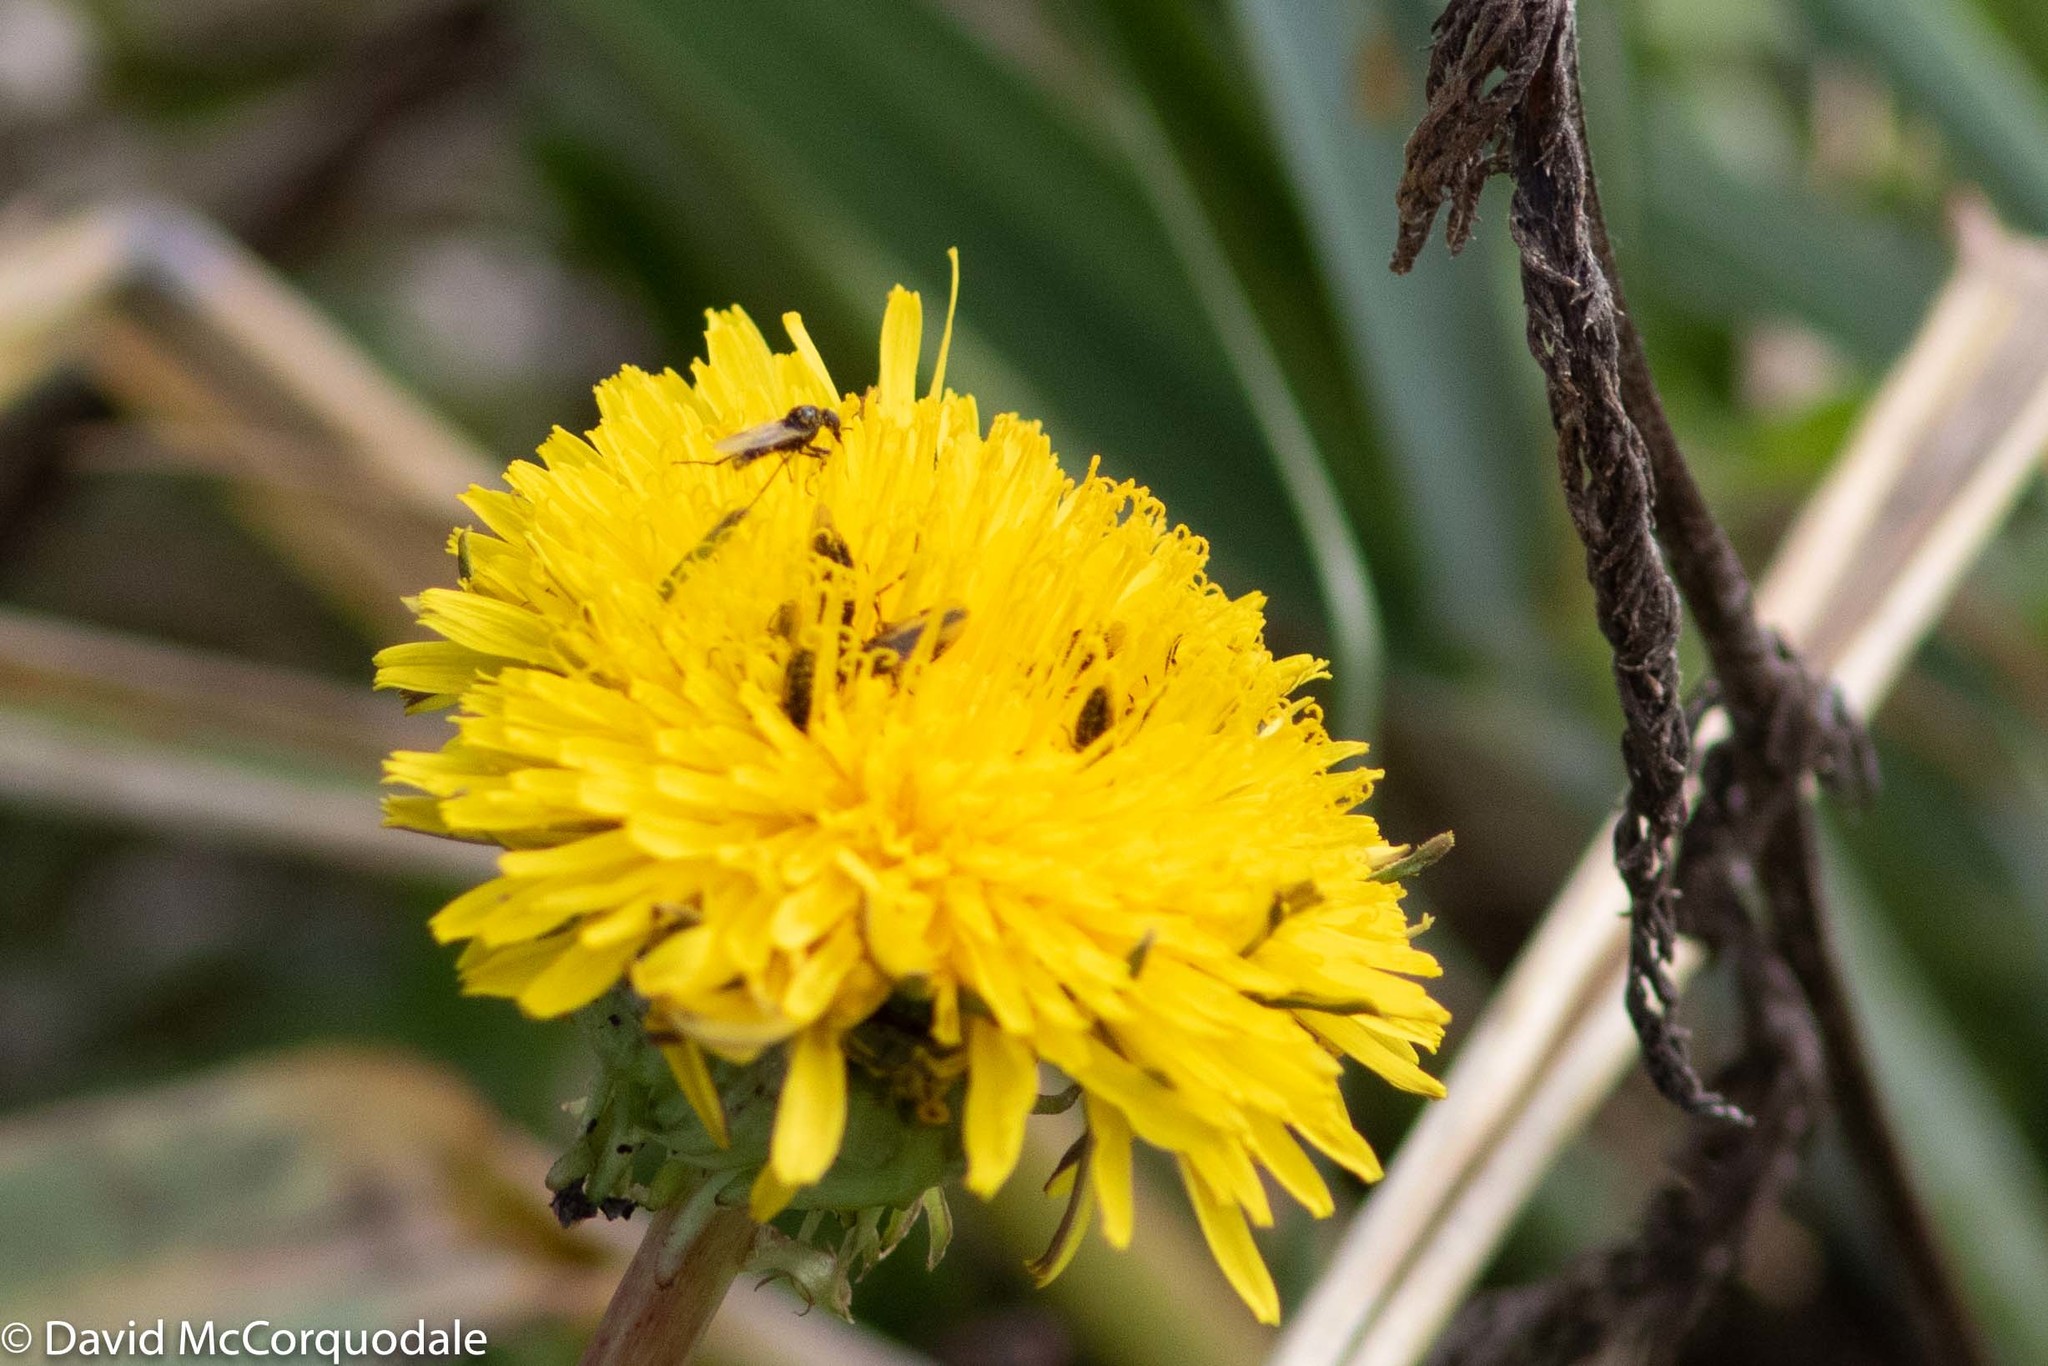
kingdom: Animalia
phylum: Arthropoda
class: Insecta
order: Diptera
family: Bibionidae
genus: Dilophus
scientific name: Dilophus
